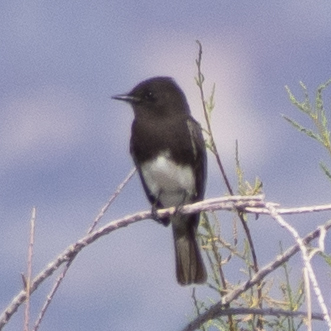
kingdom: Animalia
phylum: Chordata
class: Aves
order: Passeriformes
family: Tyrannidae
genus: Sayornis
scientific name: Sayornis nigricans
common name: Black phoebe
